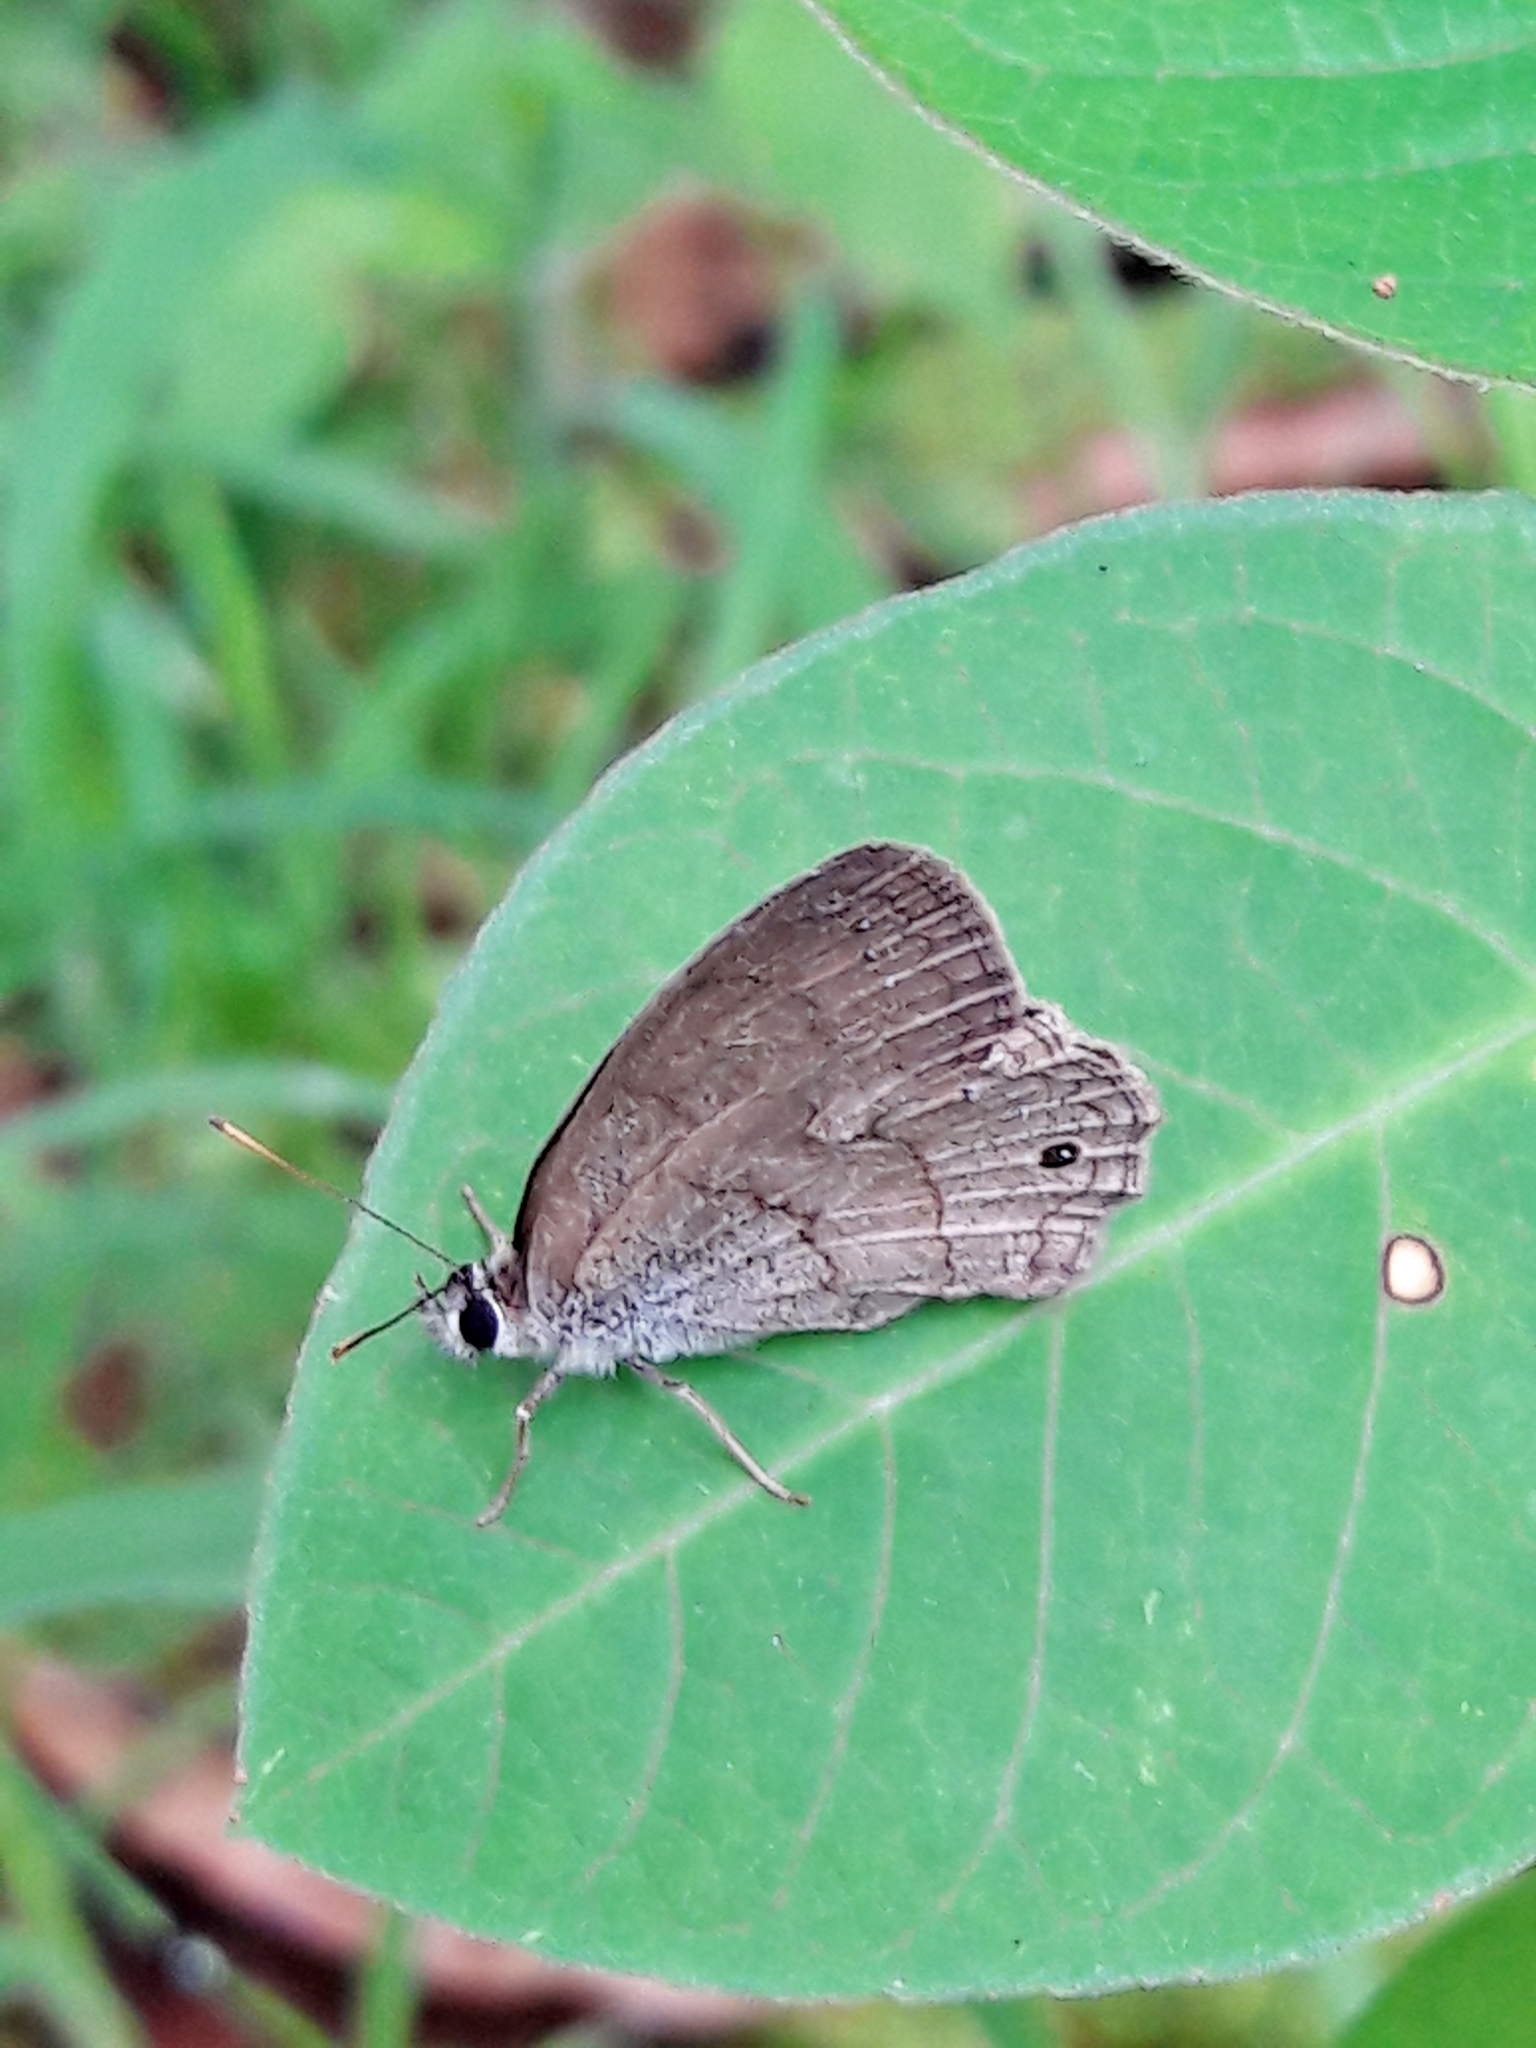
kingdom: Animalia
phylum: Arthropoda
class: Insecta
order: Lepidoptera
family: Nymphalidae
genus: Euptychia
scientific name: Euptychia Cissia eous
